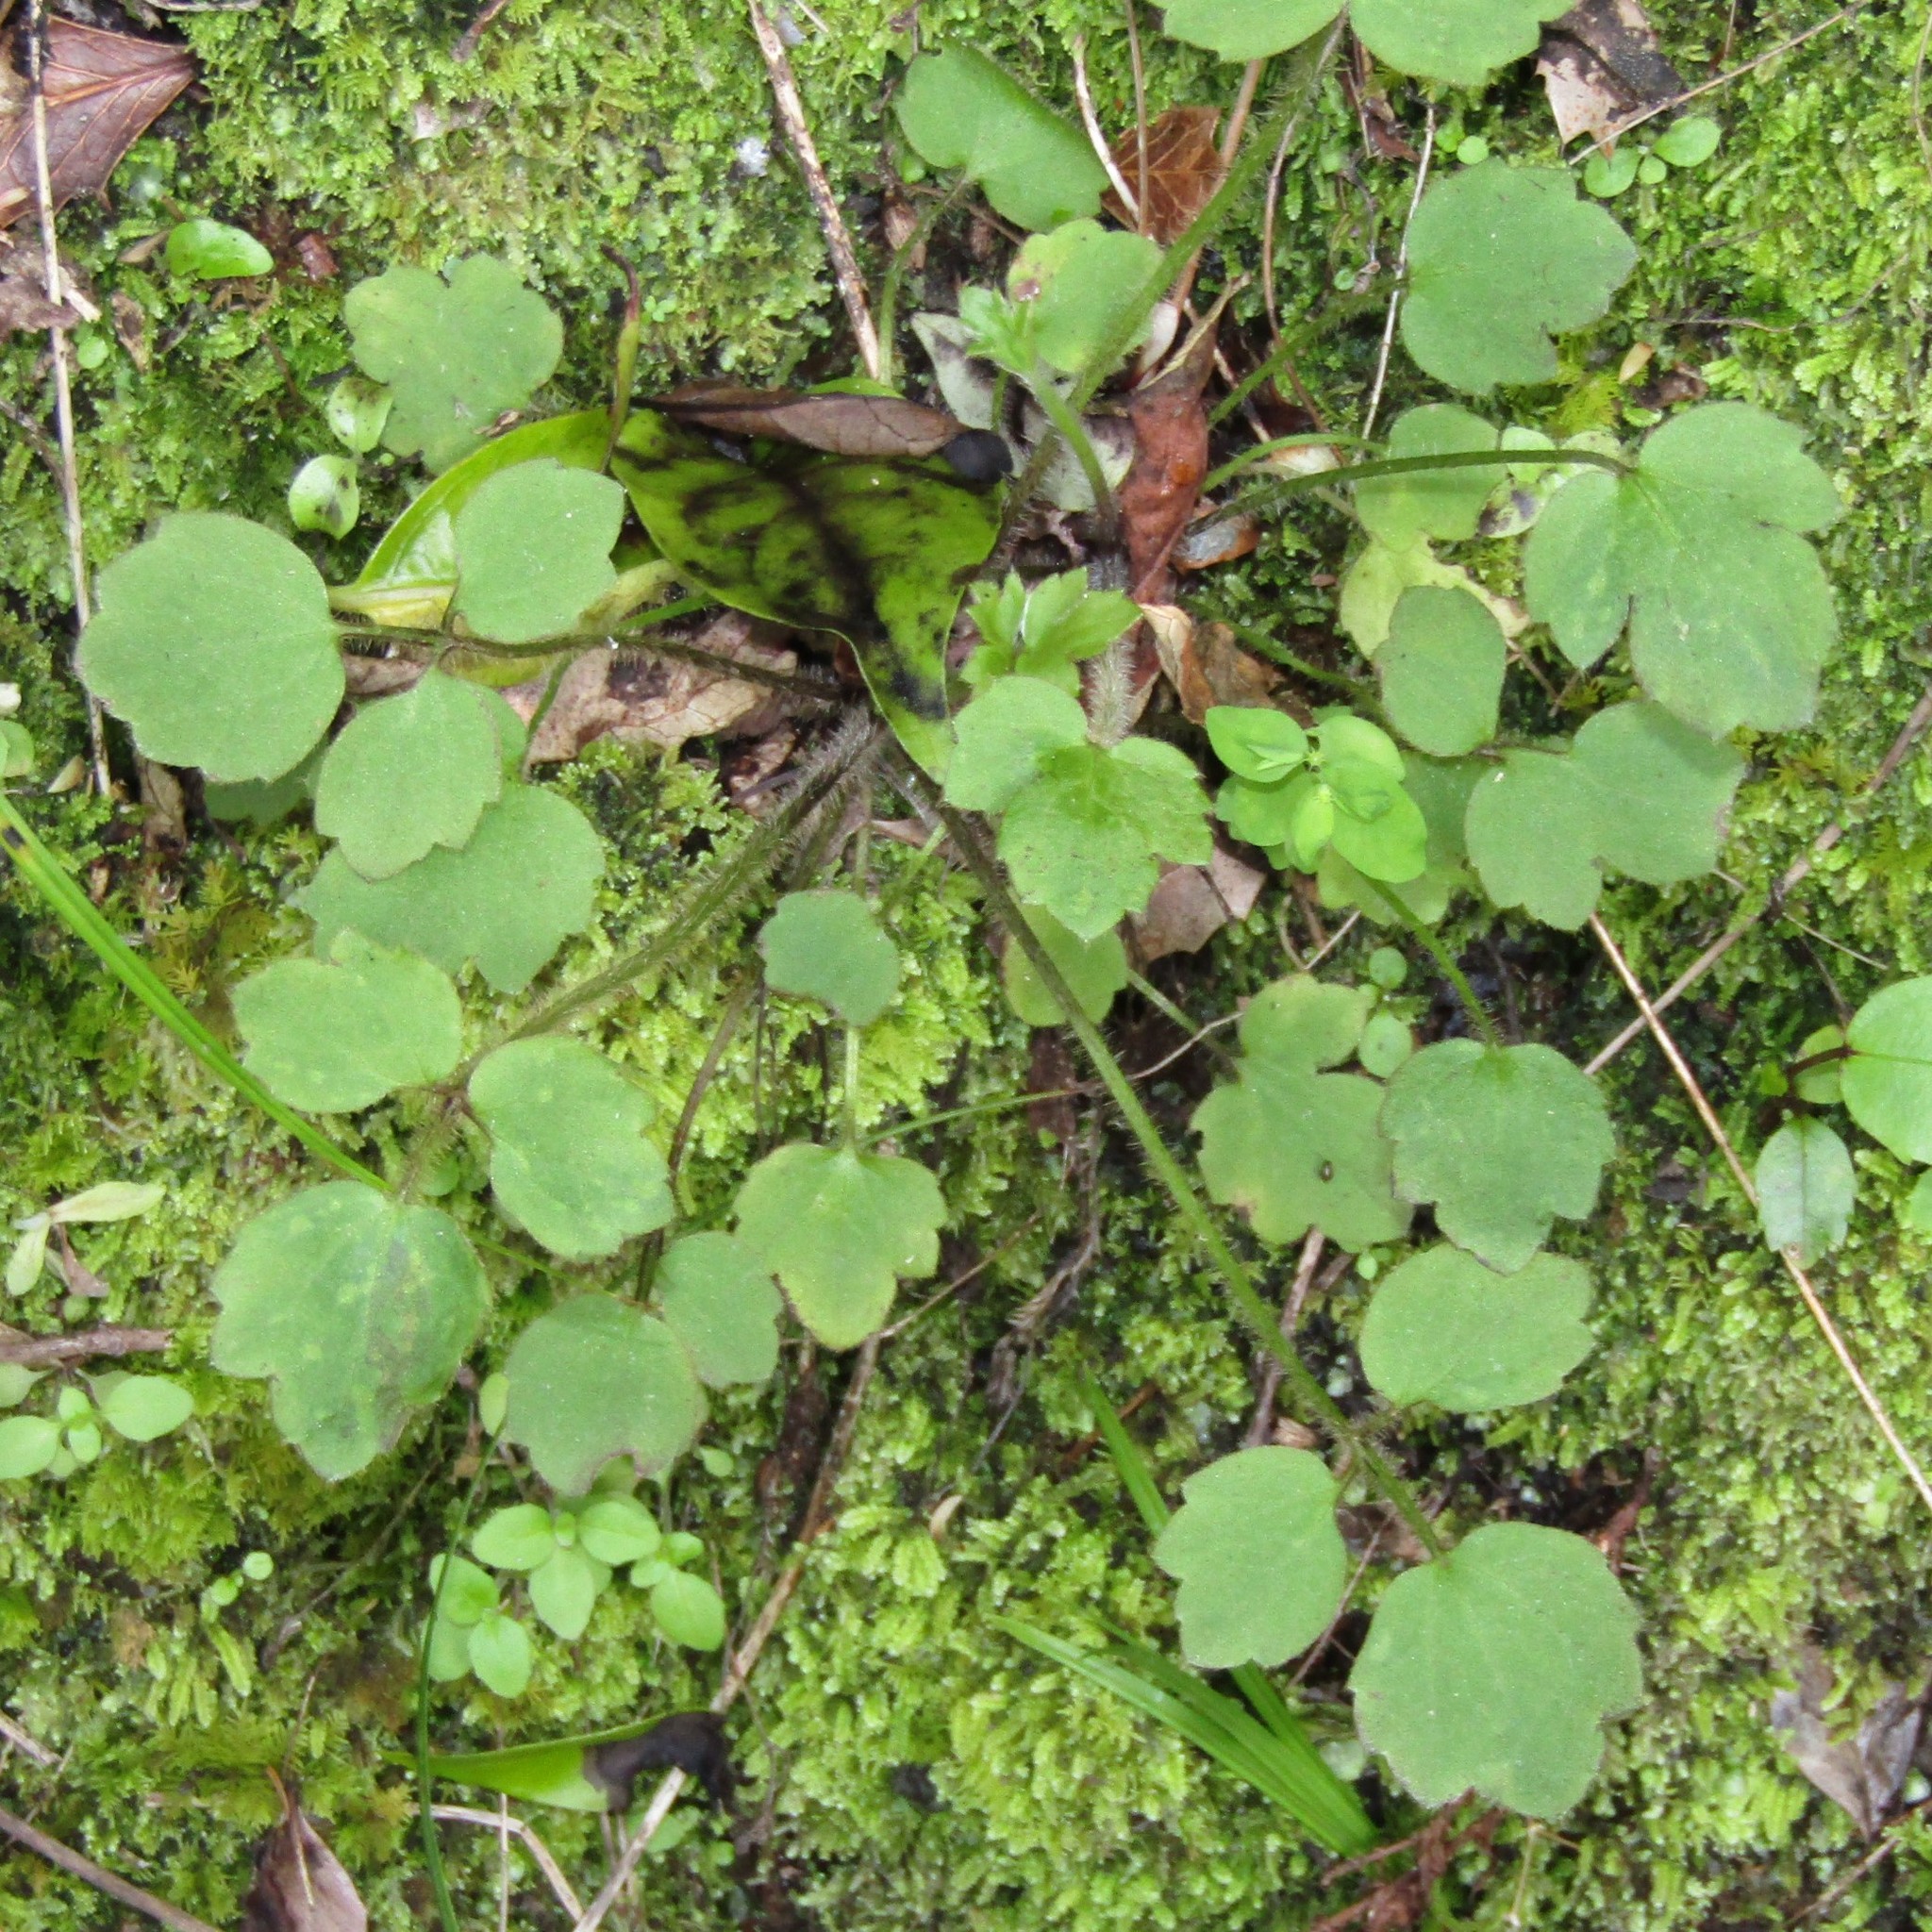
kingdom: Plantae
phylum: Tracheophyta
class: Magnoliopsida
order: Ranunculales
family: Ranunculaceae
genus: Ranunculus
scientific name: Ranunculus reflexus
